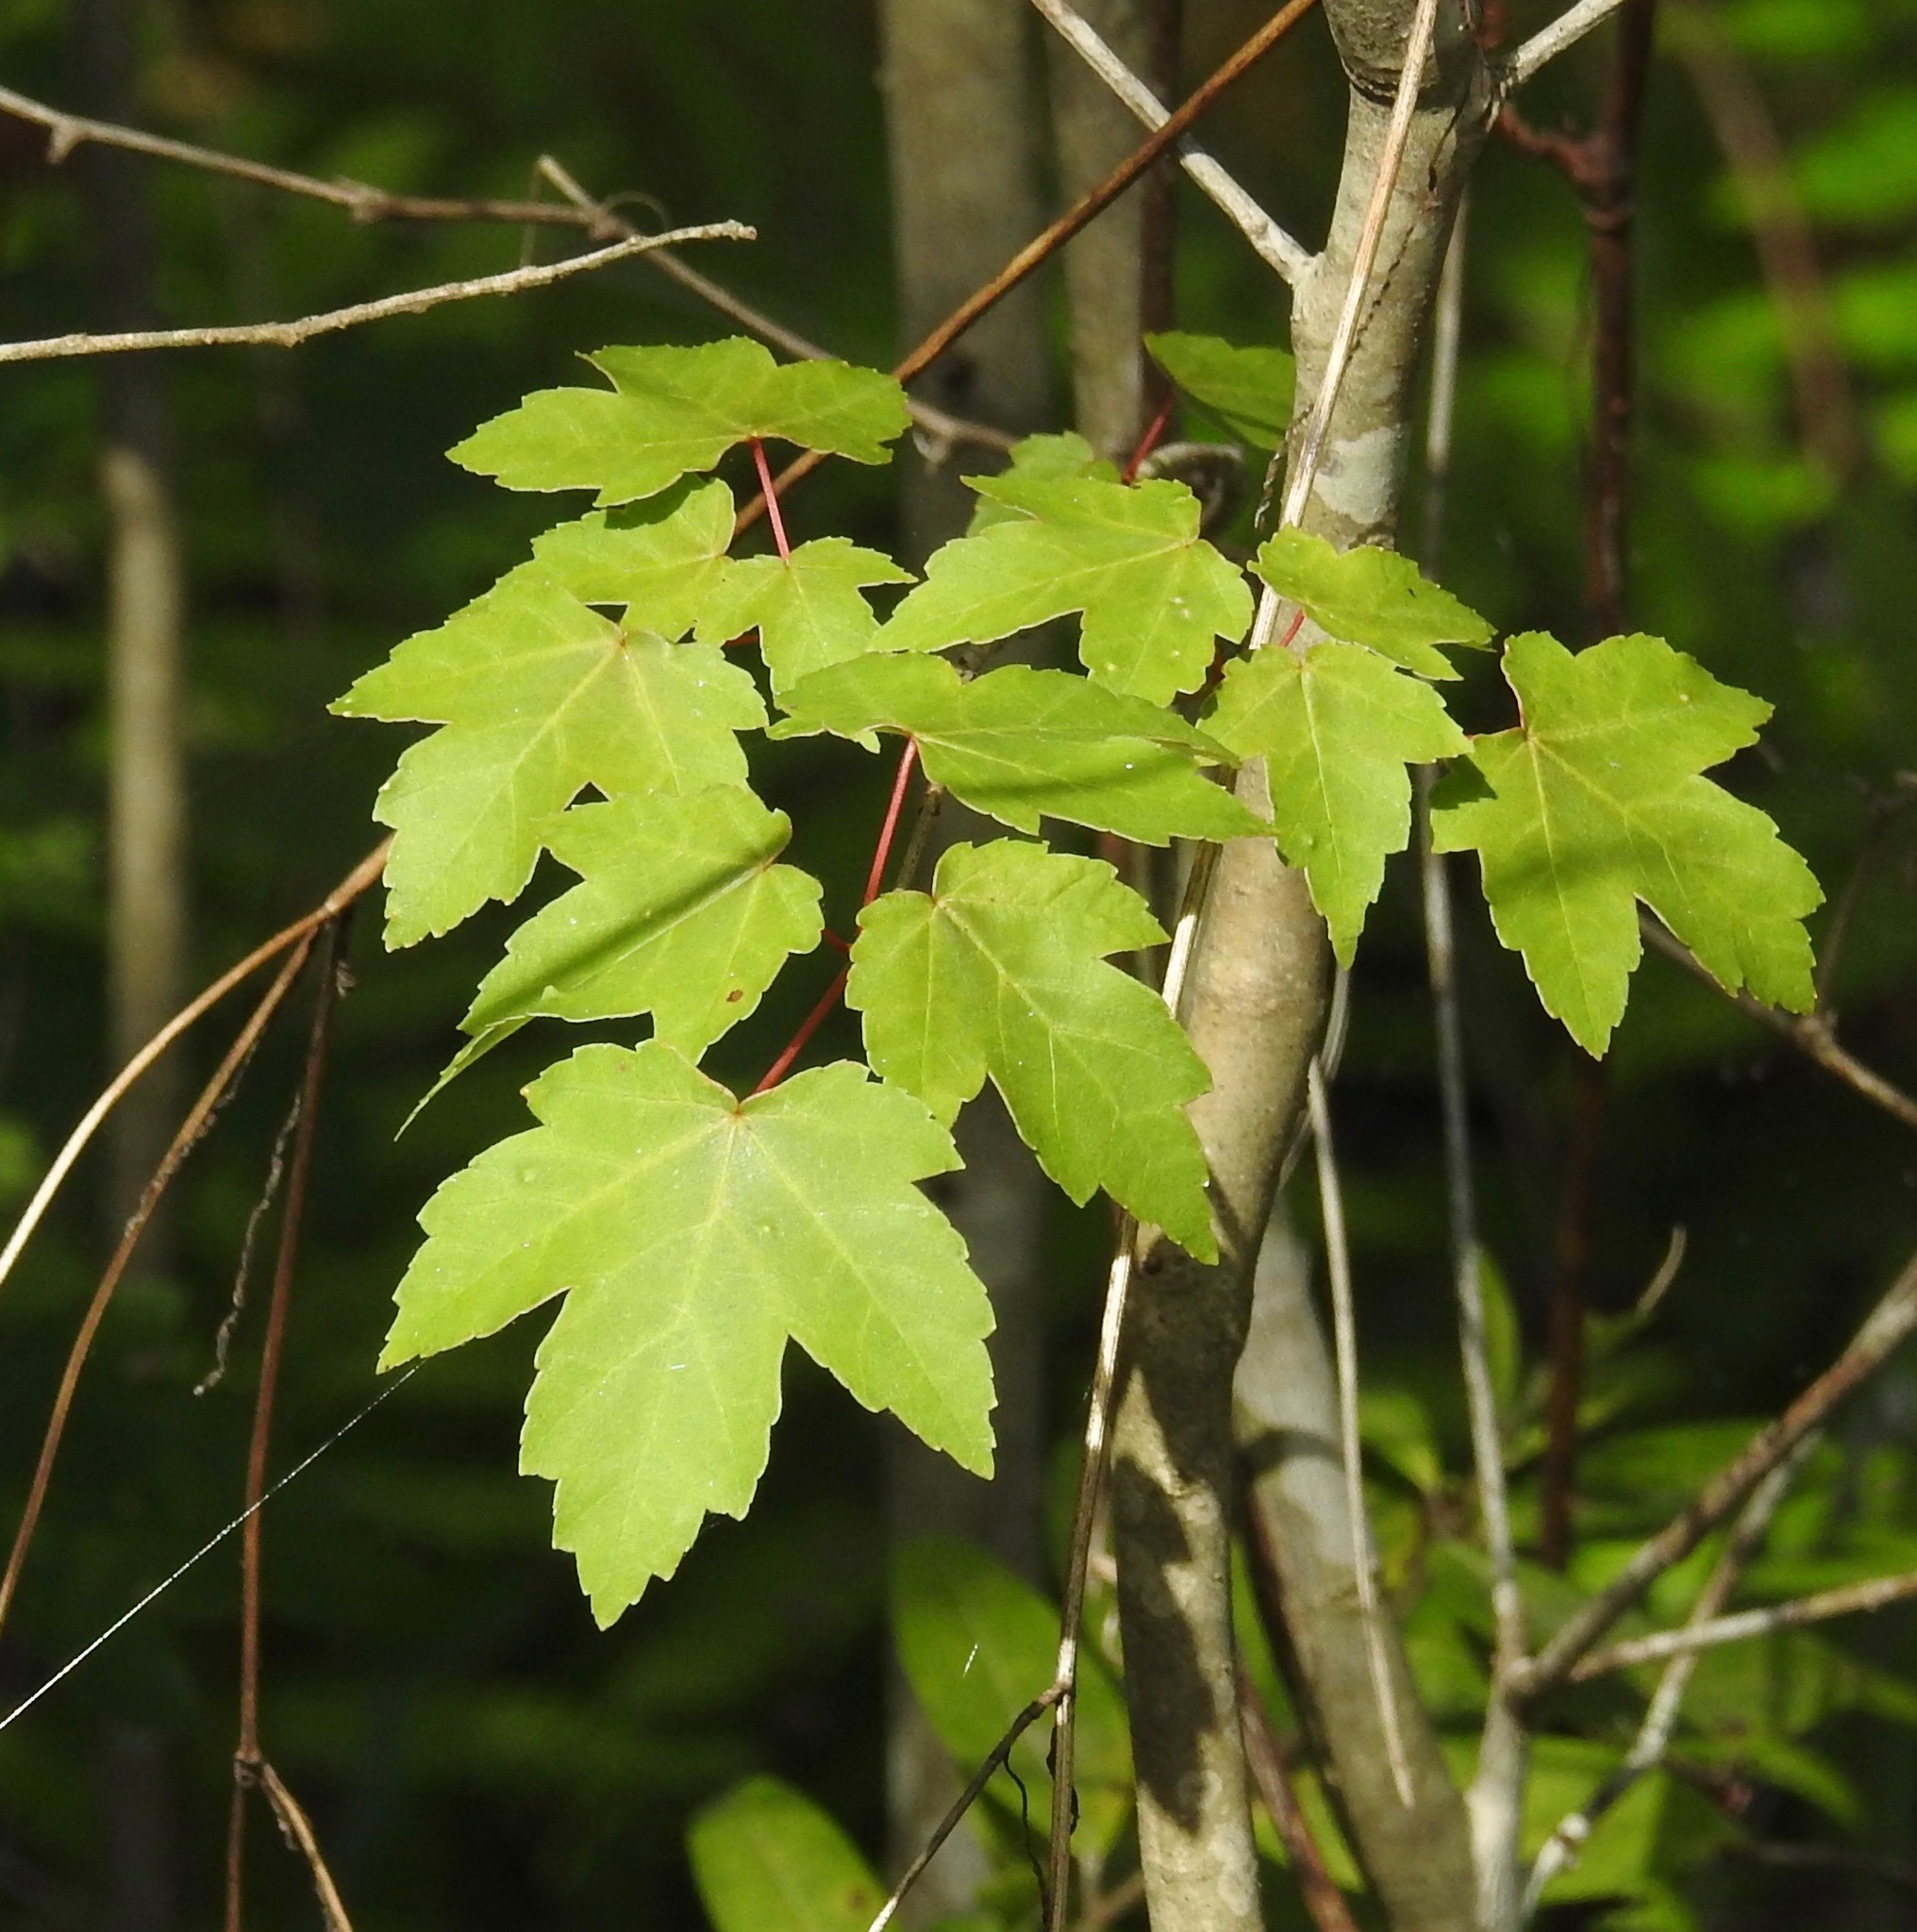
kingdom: Plantae
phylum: Tracheophyta
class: Magnoliopsida
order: Sapindales
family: Sapindaceae
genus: Acer
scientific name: Acer rubrum
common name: Red maple
